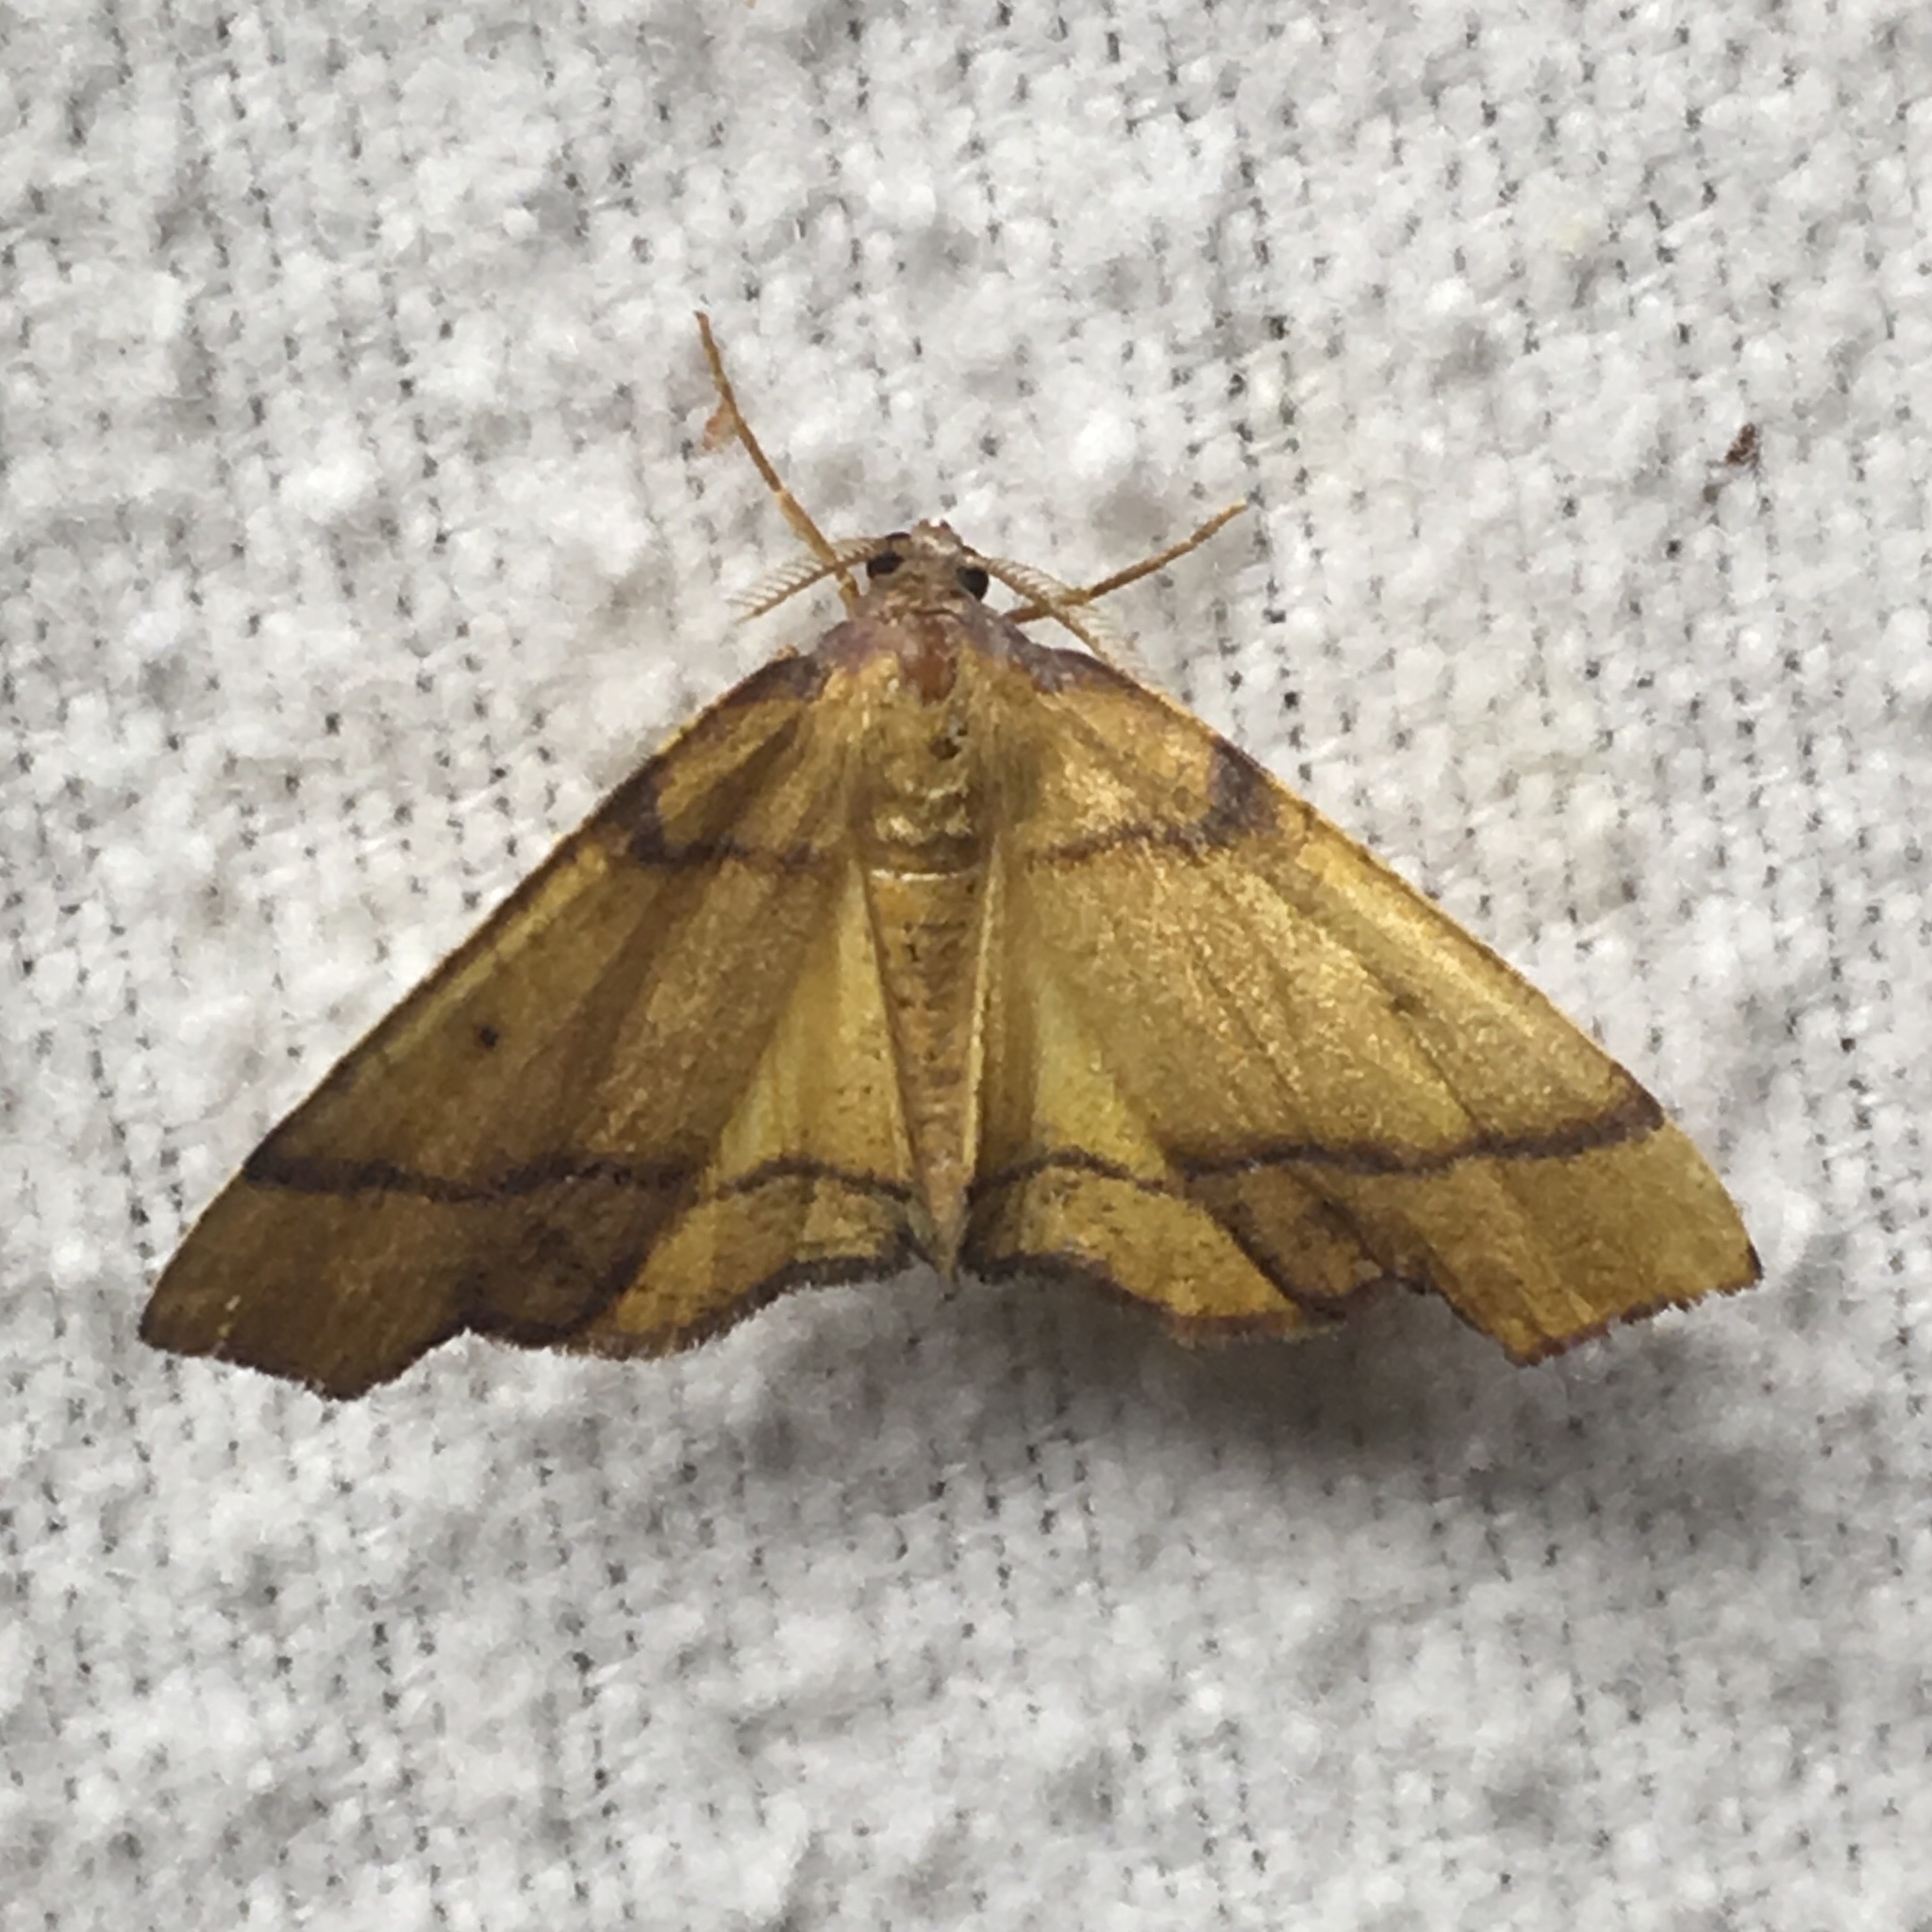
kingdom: Animalia
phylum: Arthropoda
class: Insecta
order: Lepidoptera
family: Geometridae
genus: Plagodis
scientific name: Plagodis phlogosaria
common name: Straight-lined plagodis
